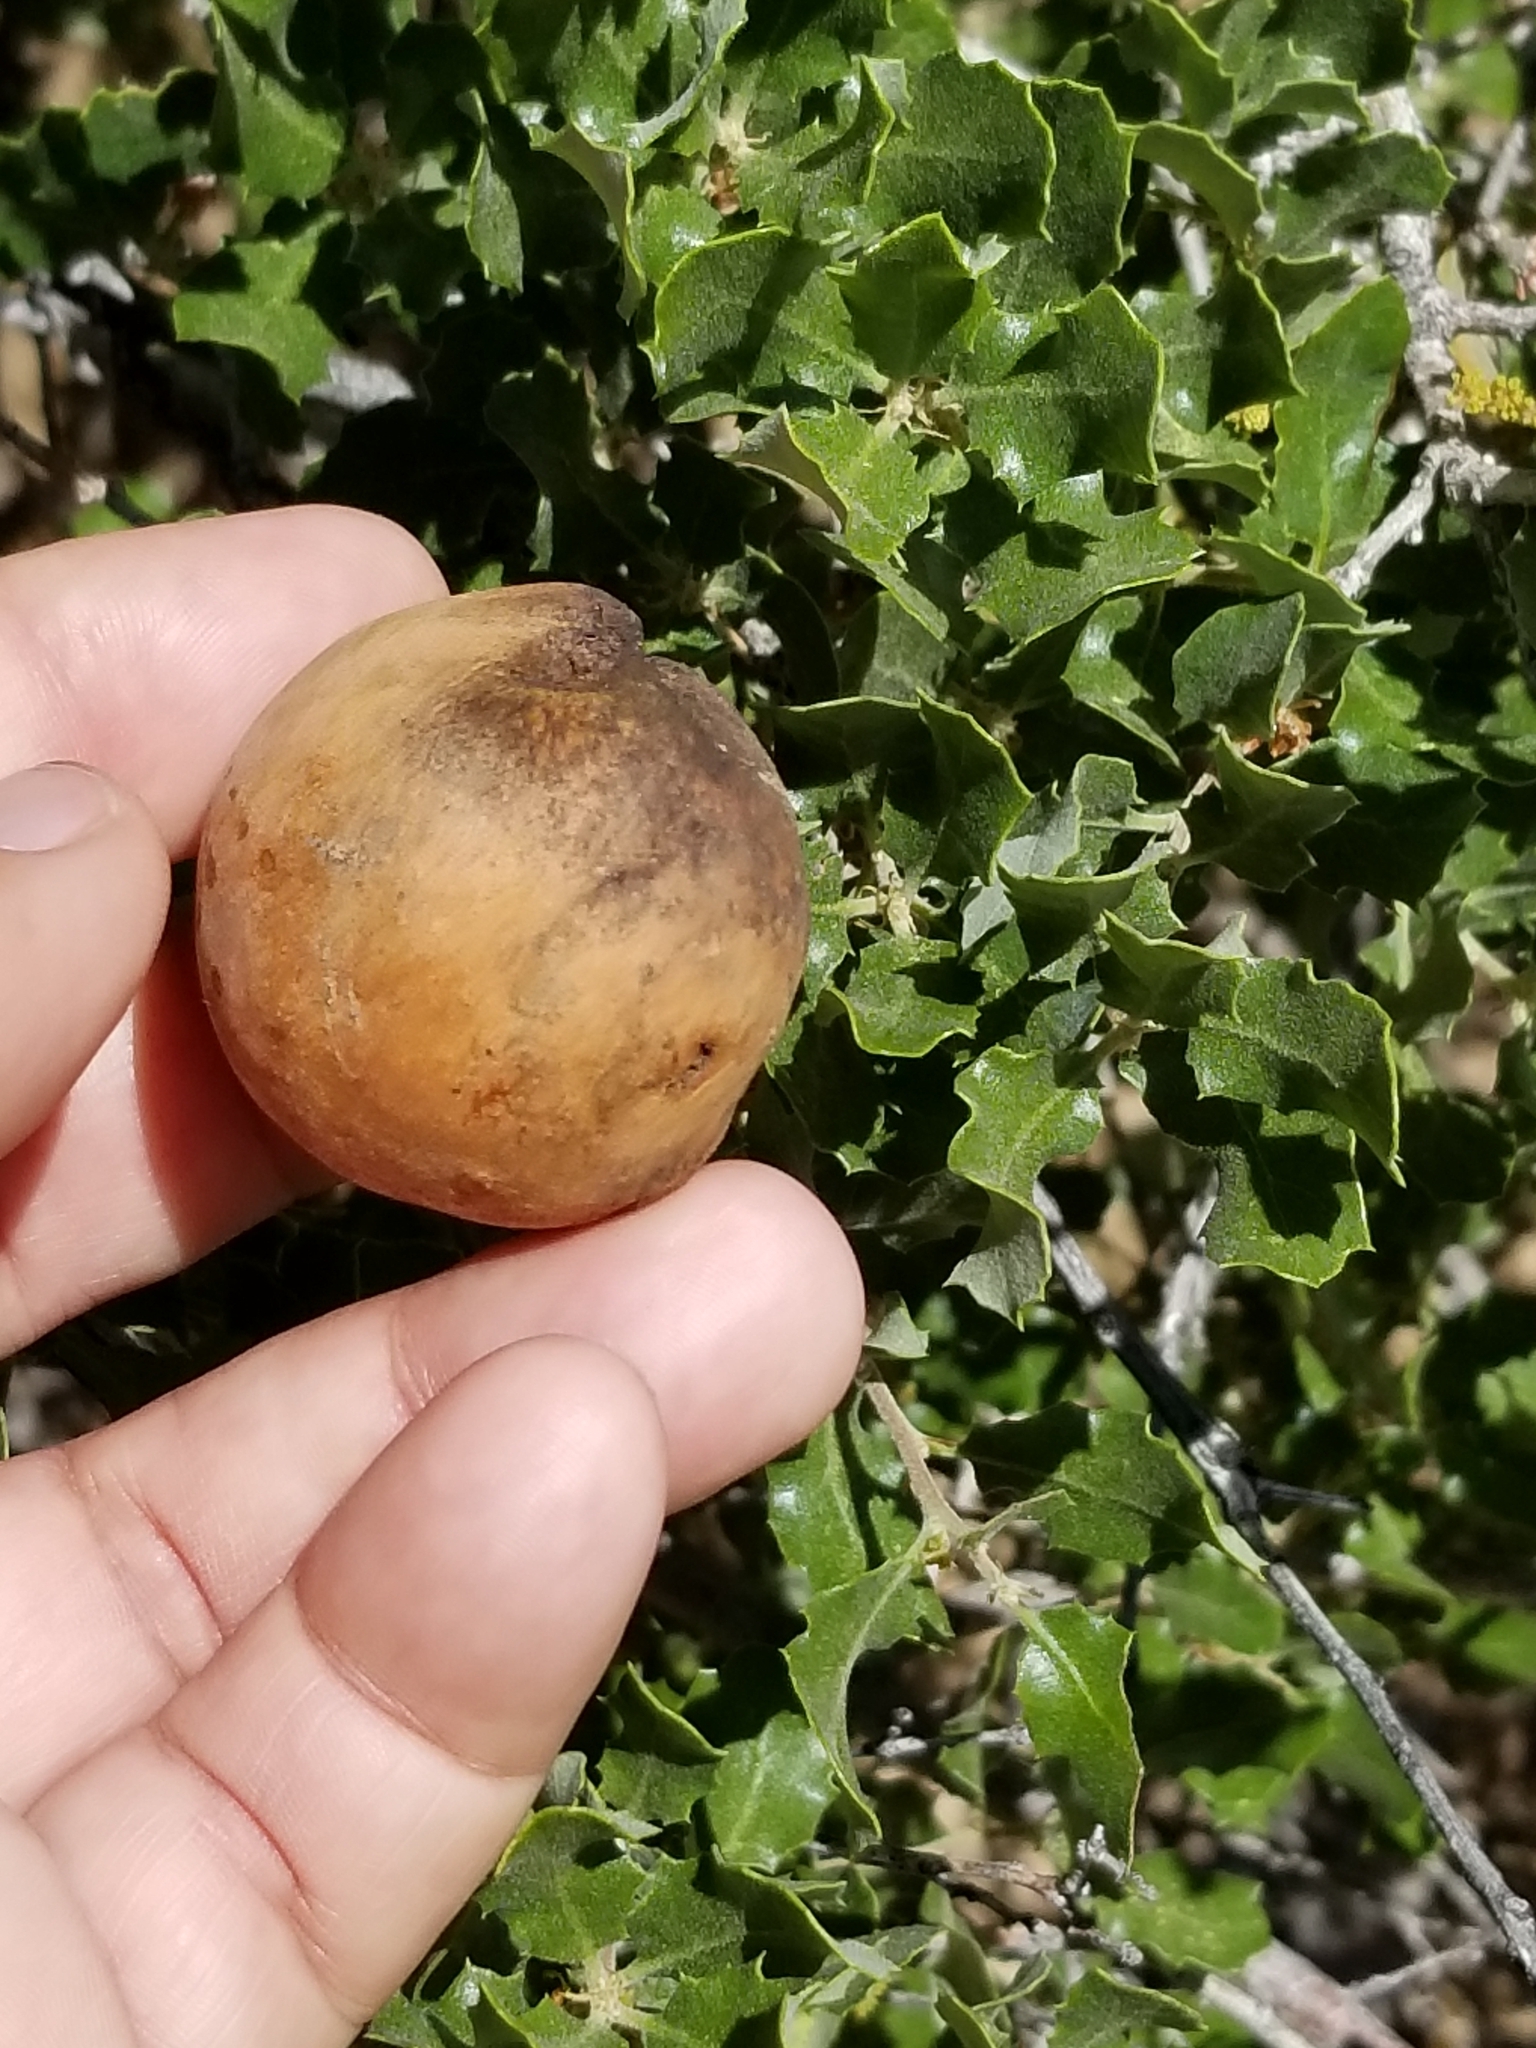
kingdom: Animalia
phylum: Arthropoda
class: Insecta
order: Hymenoptera
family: Cynipidae
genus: Andricus
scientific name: Andricus quercuscalifornicus
